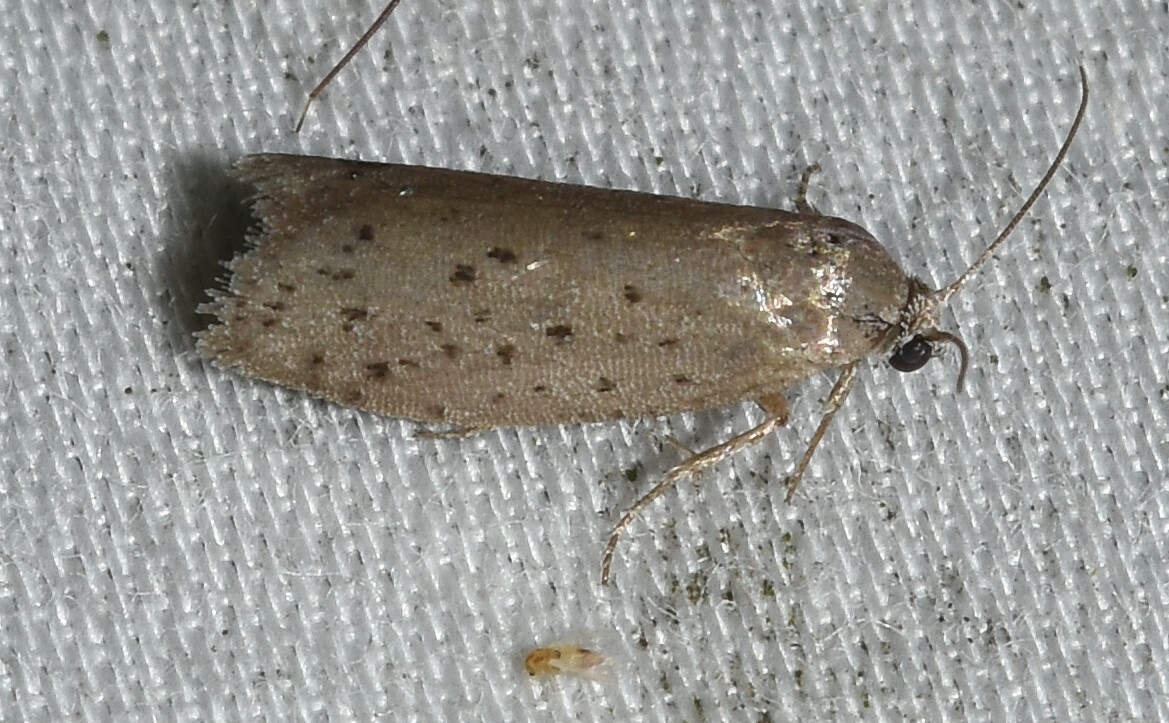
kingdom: Animalia
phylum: Arthropoda
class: Insecta
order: Lepidoptera
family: Galacticidae
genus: Homadaula
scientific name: Homadaula anisocentra
